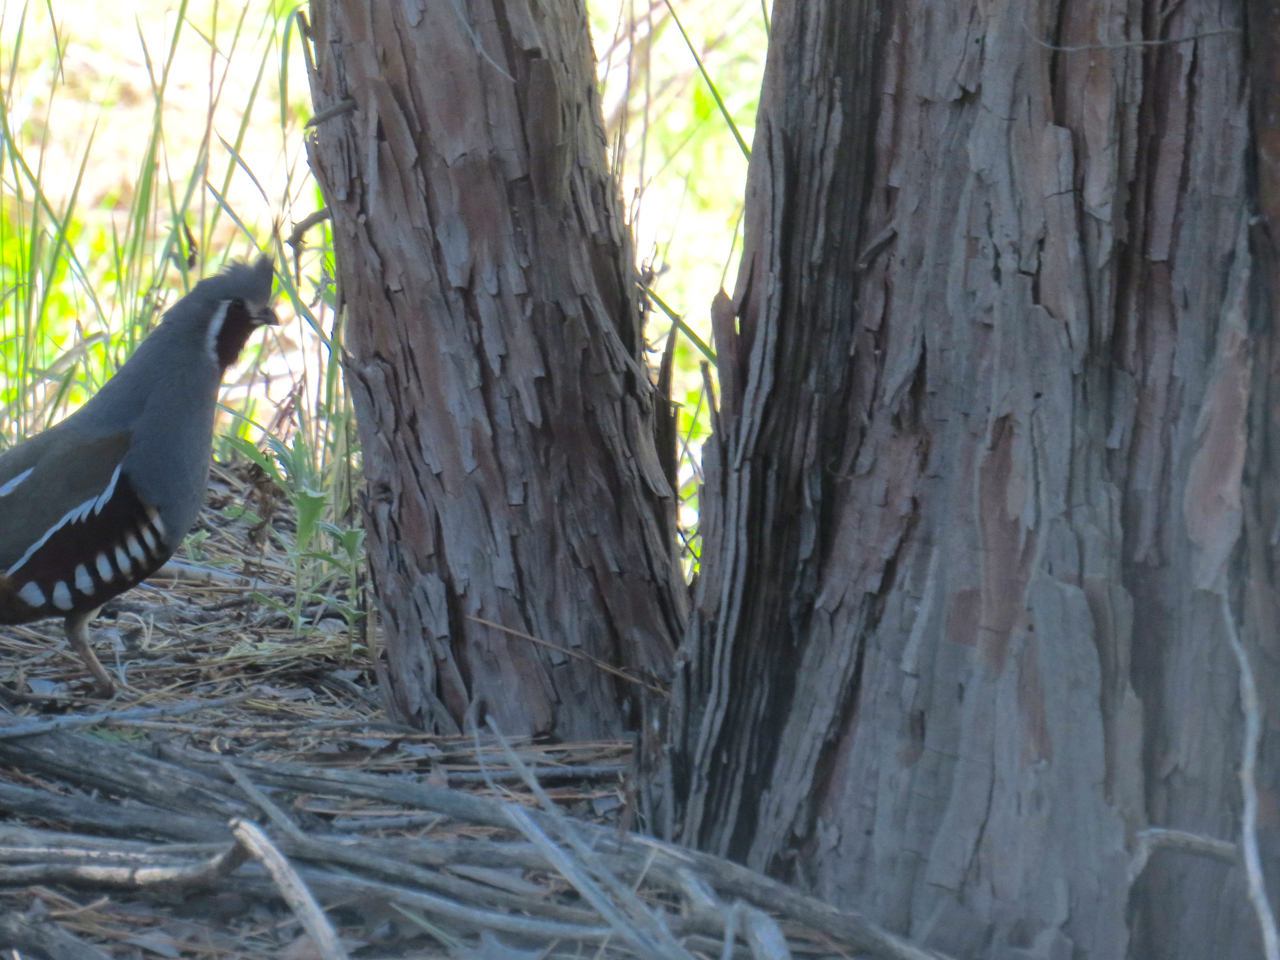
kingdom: Animalia
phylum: Chordata
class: Aves
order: Galliformes
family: Odontophoridae
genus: Oreortyx
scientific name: Oreortyx pictus
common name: Mountain quail
